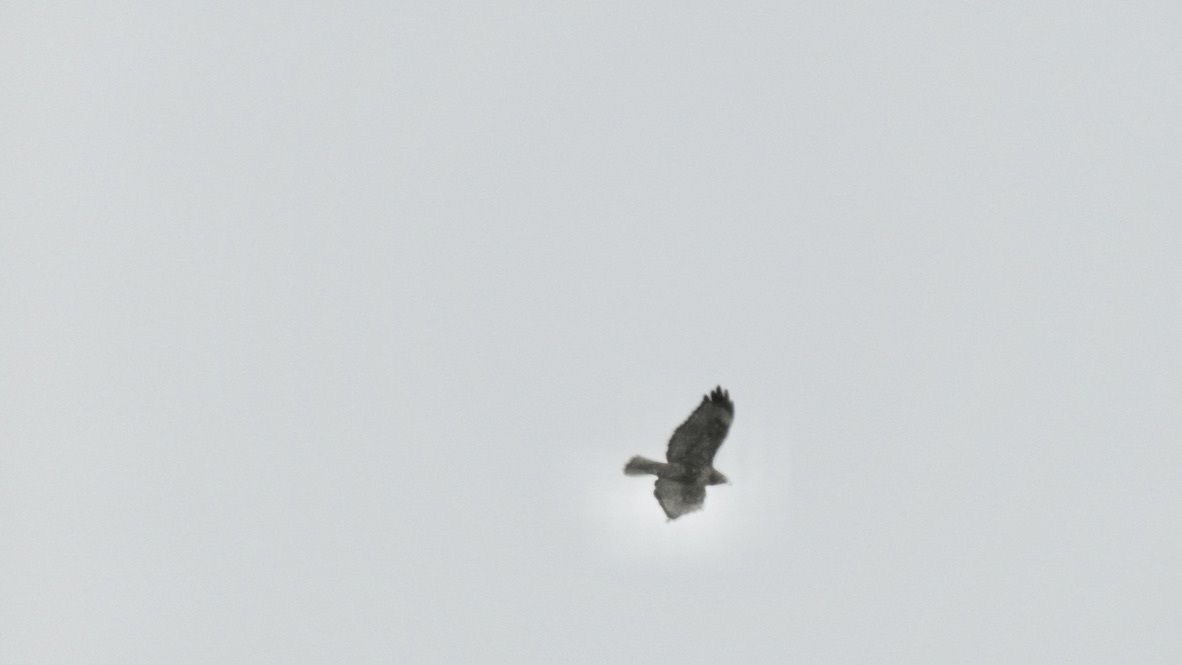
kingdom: Animalia
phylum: Chordata
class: Aves
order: Accipitriformes
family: Accipitridae
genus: Buteo
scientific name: Buteo jamaicensis
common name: Red-tailed hawk
